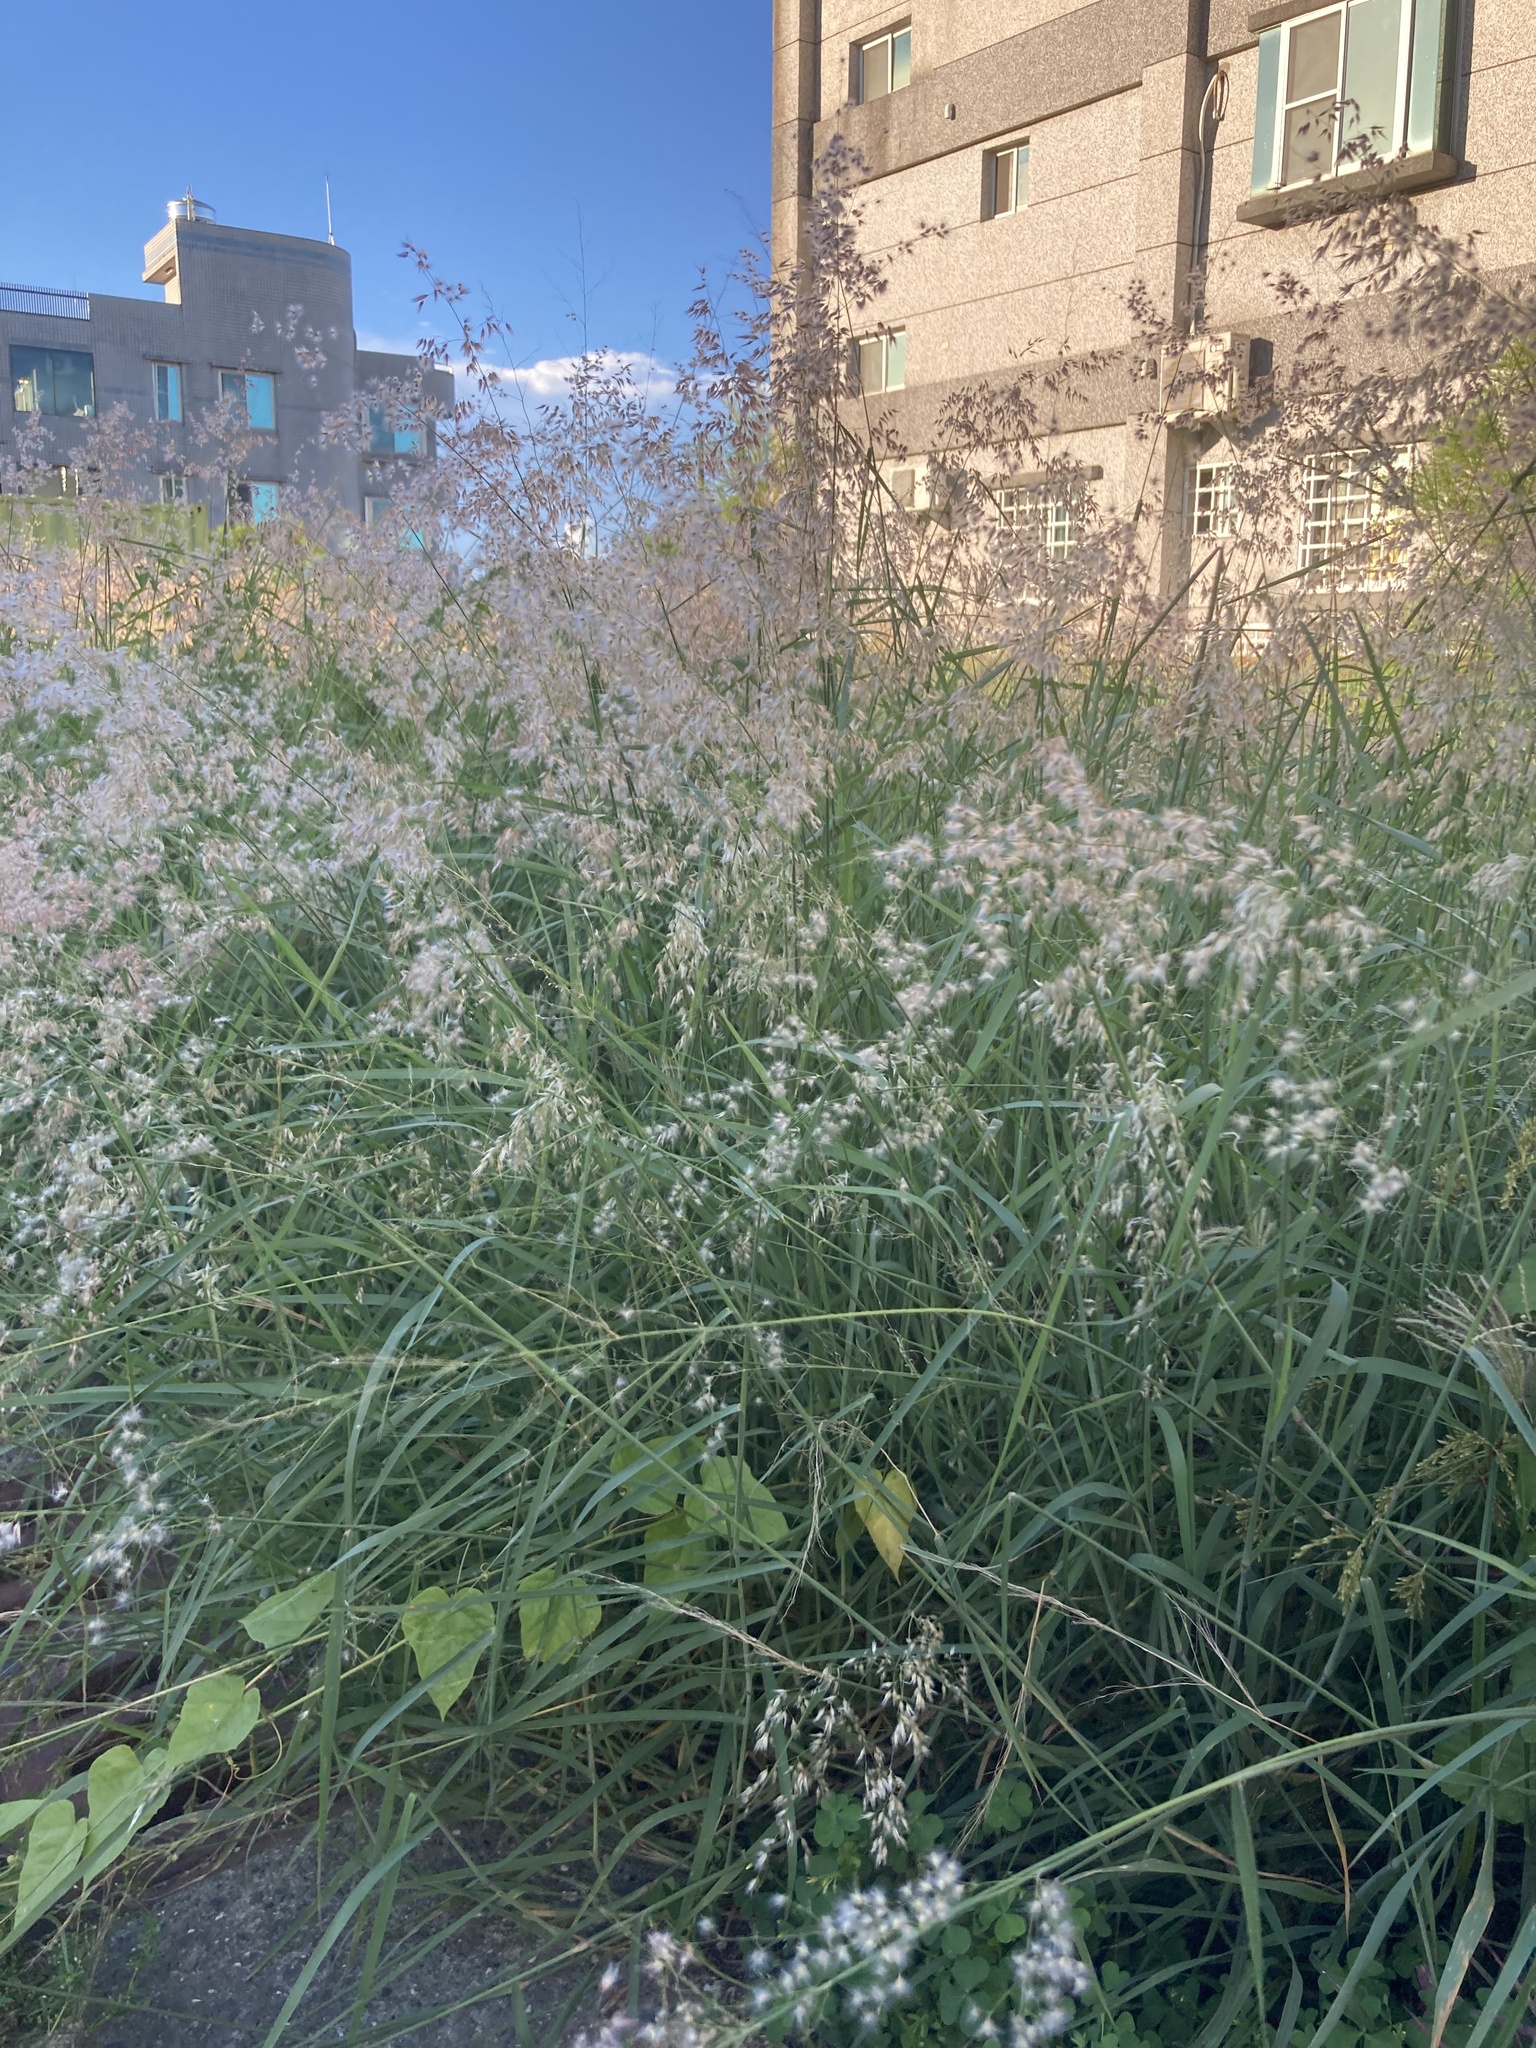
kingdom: Plantae
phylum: Tracheophyta
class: Liliopsida
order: Poales
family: Poaceae
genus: Melinis
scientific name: Melinis repens
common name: Rose natal grass
